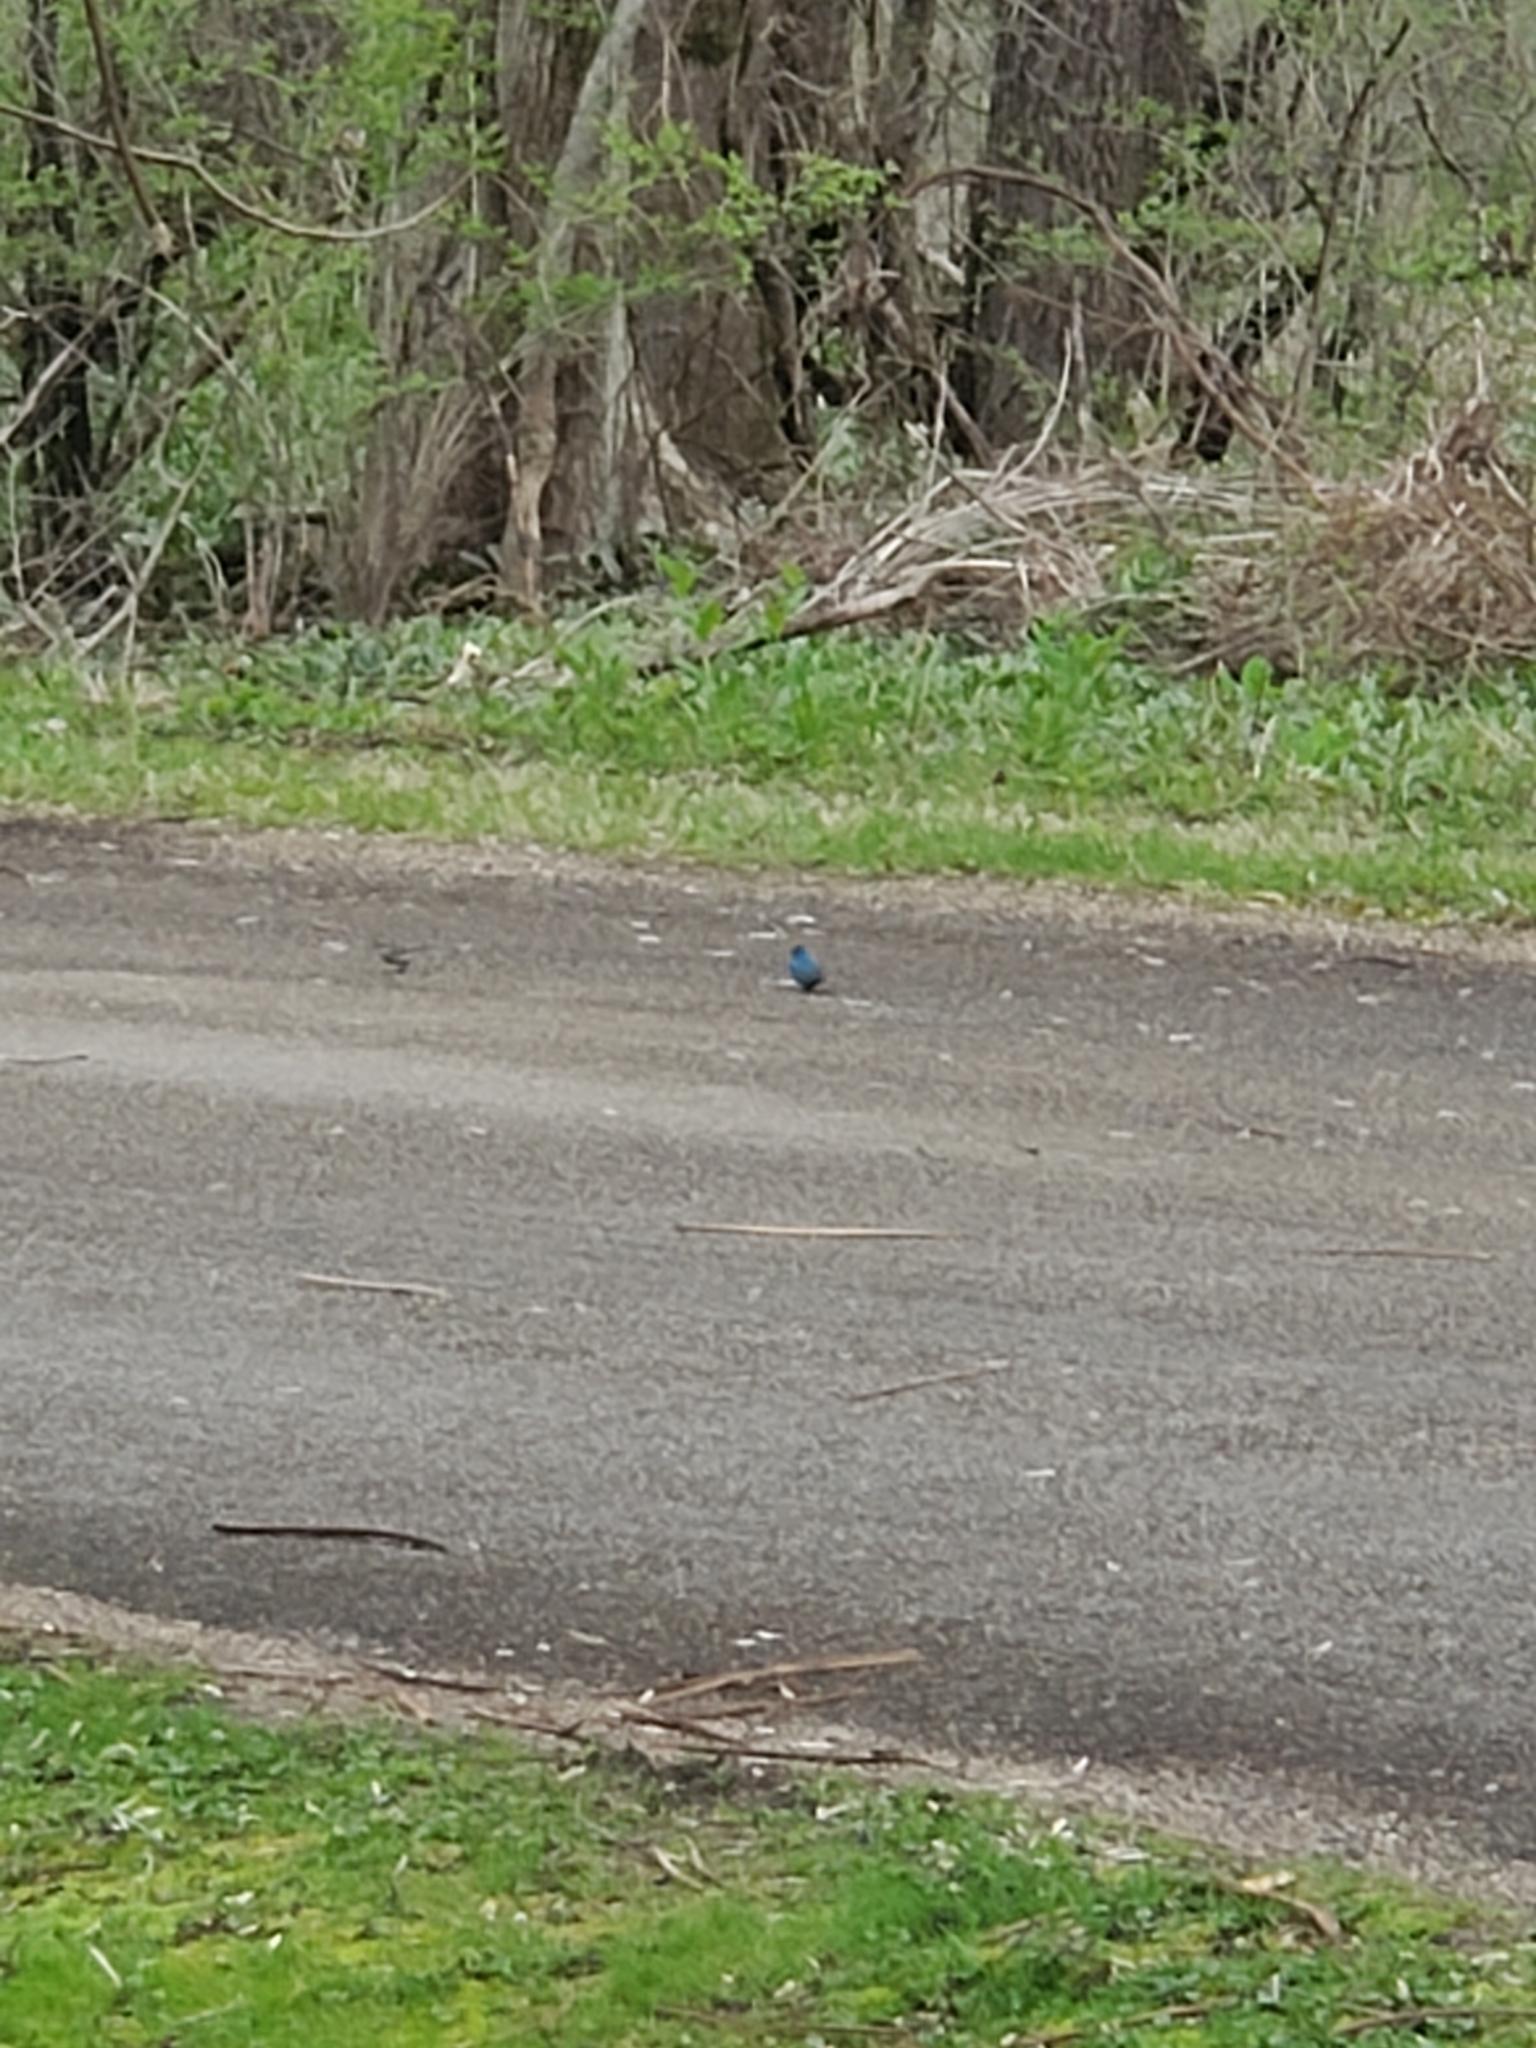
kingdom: Animalia
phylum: Chordata
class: Aves
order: Passeriformes
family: Cardinalidae
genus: Passerina
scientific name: Passerina cyanea
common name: Indigo bunting
